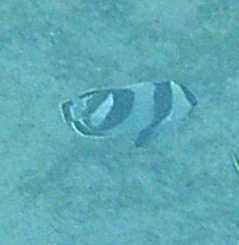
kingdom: Animalia
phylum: Chordata
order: Perciformes
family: Chaetodontidae
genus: Chaetodon
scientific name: Chaetodon striatus
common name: Banded butterflyfish
